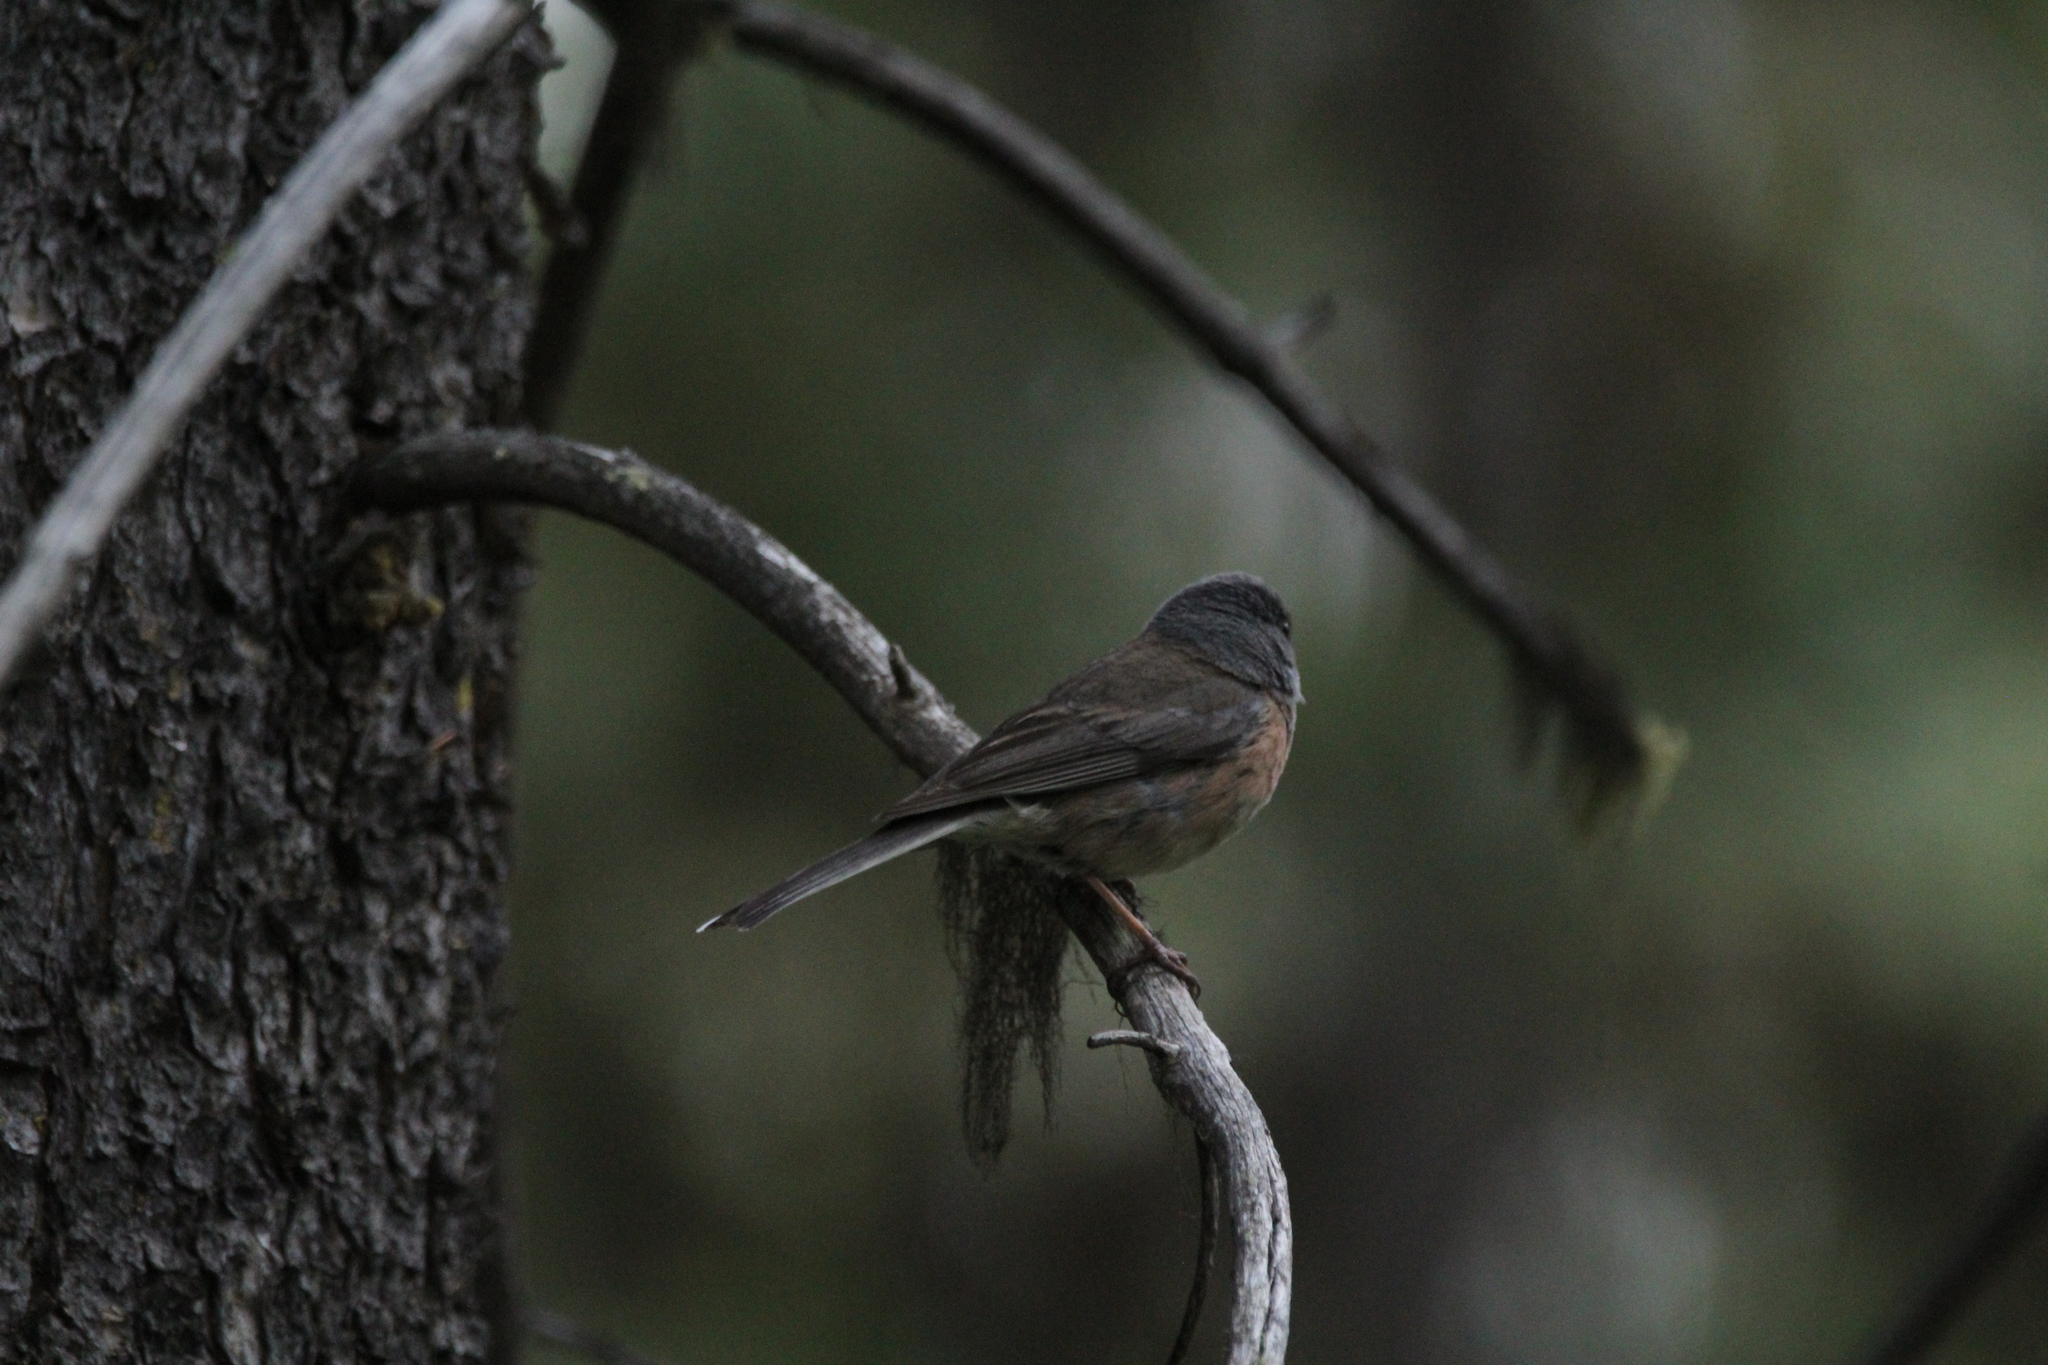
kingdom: Animalia
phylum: Chordata
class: Aves
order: Passeriformes
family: Passerellidae
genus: Junco
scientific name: Junco hyemalis
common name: Dark-eyed junco
